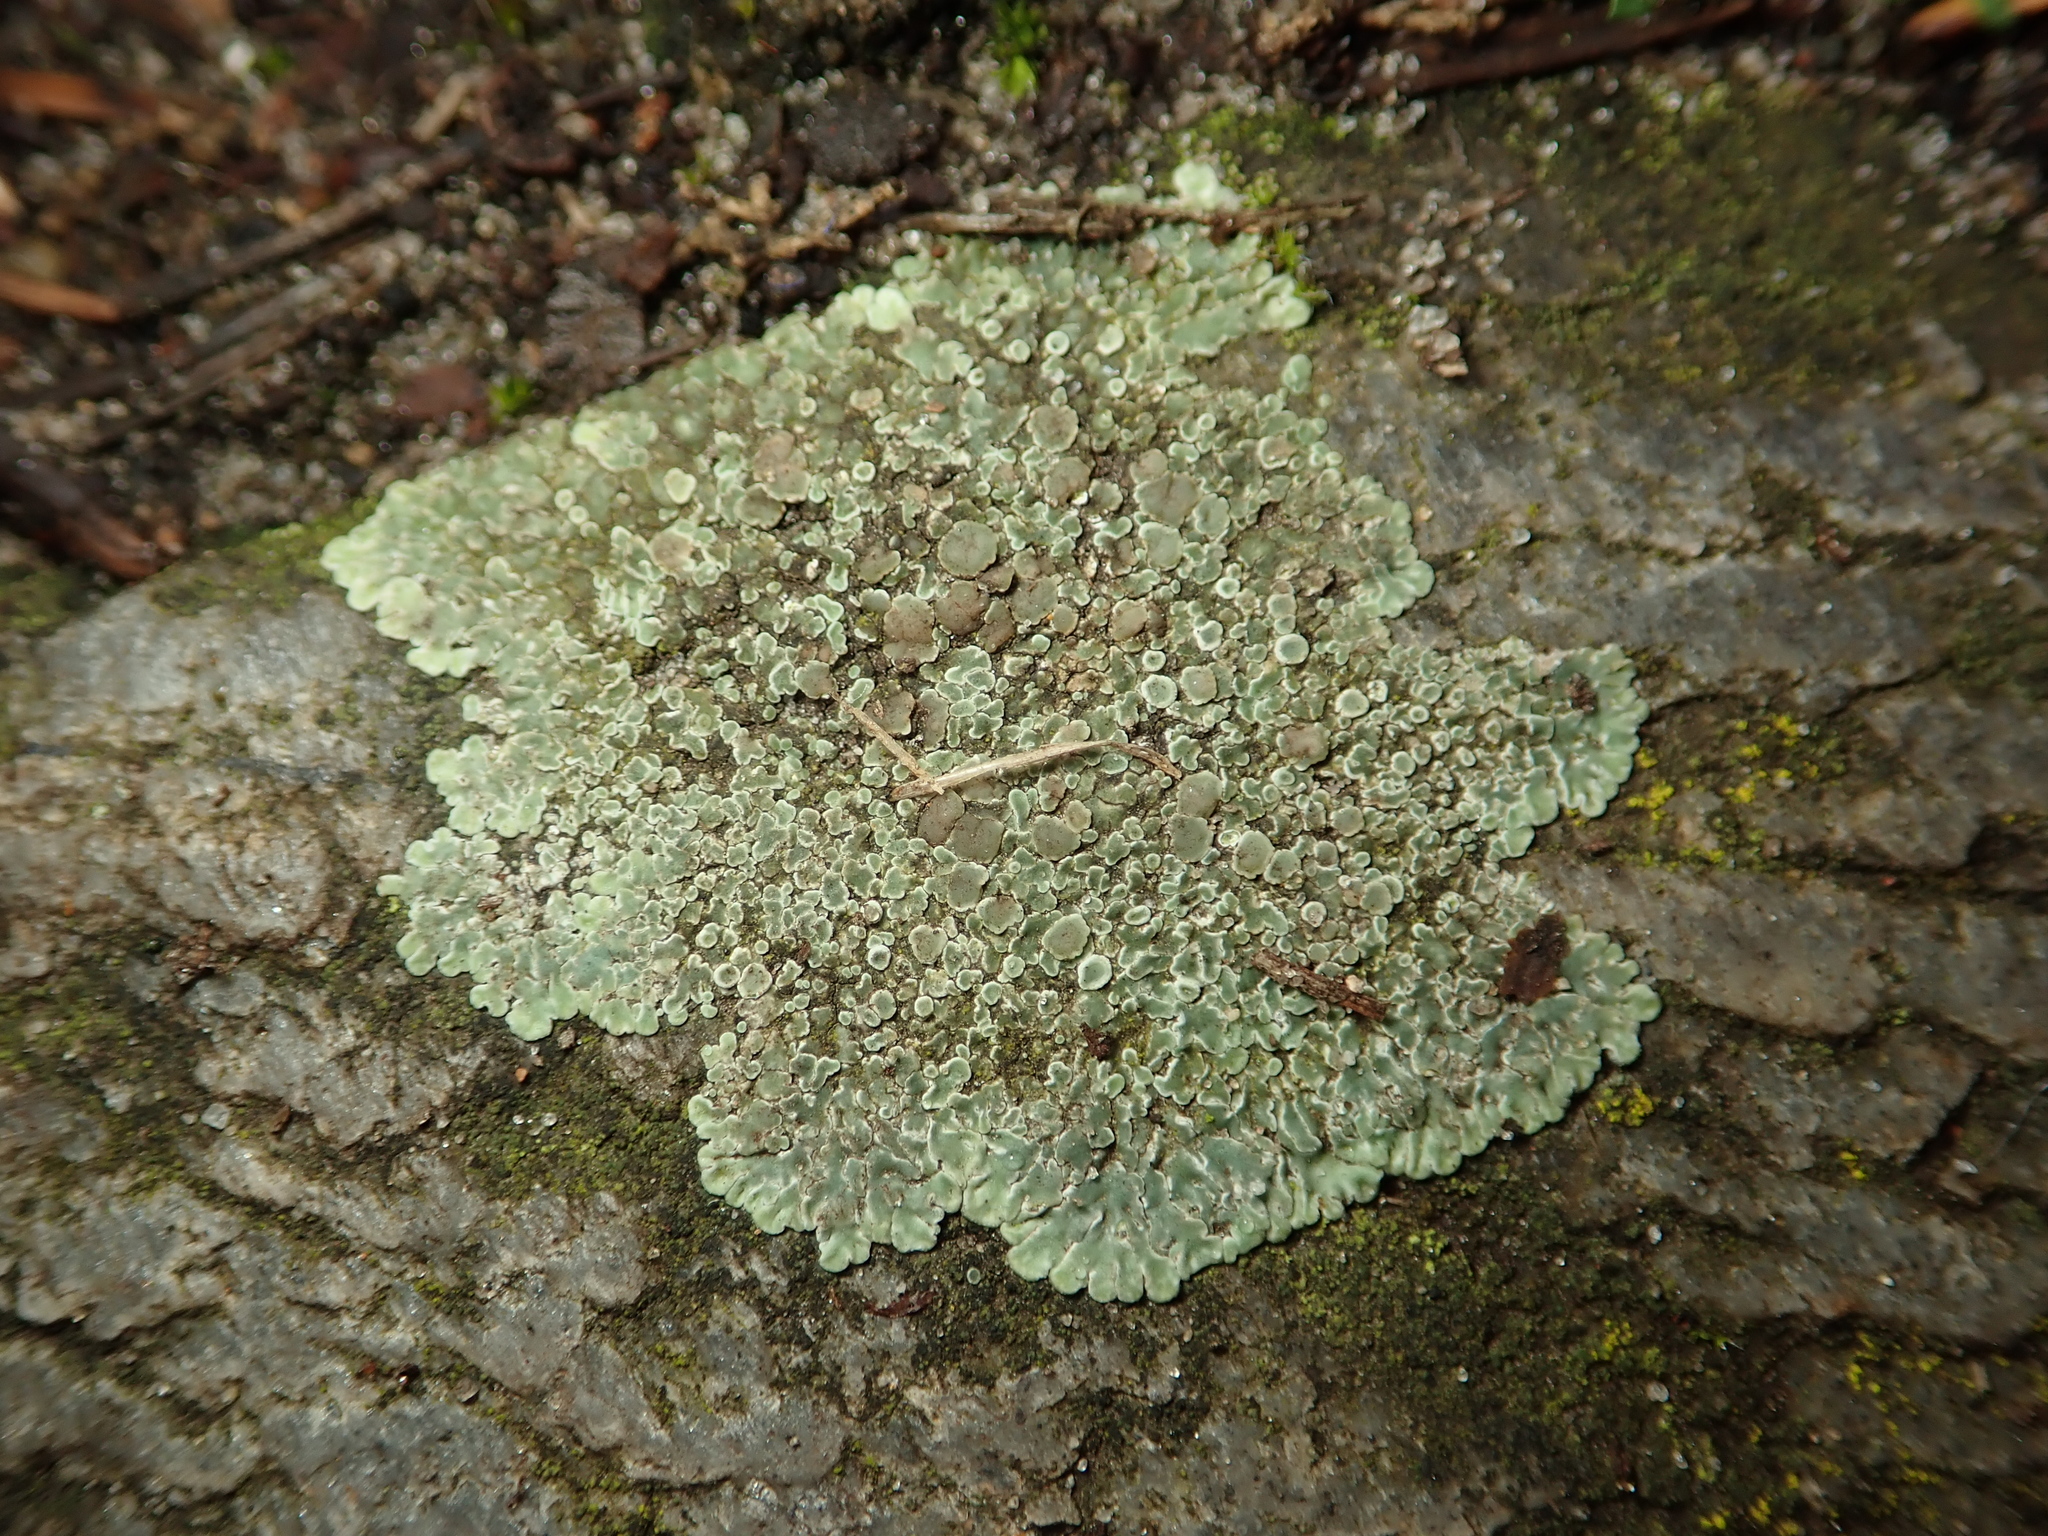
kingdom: Fungi
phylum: Ascomycota
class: Lecanoromycetes
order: Lecanorales
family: Lecanoraceae
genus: Protoparmeliopsis
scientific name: Protoparmeliopsis muralis
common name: Stonewall rim lichen
